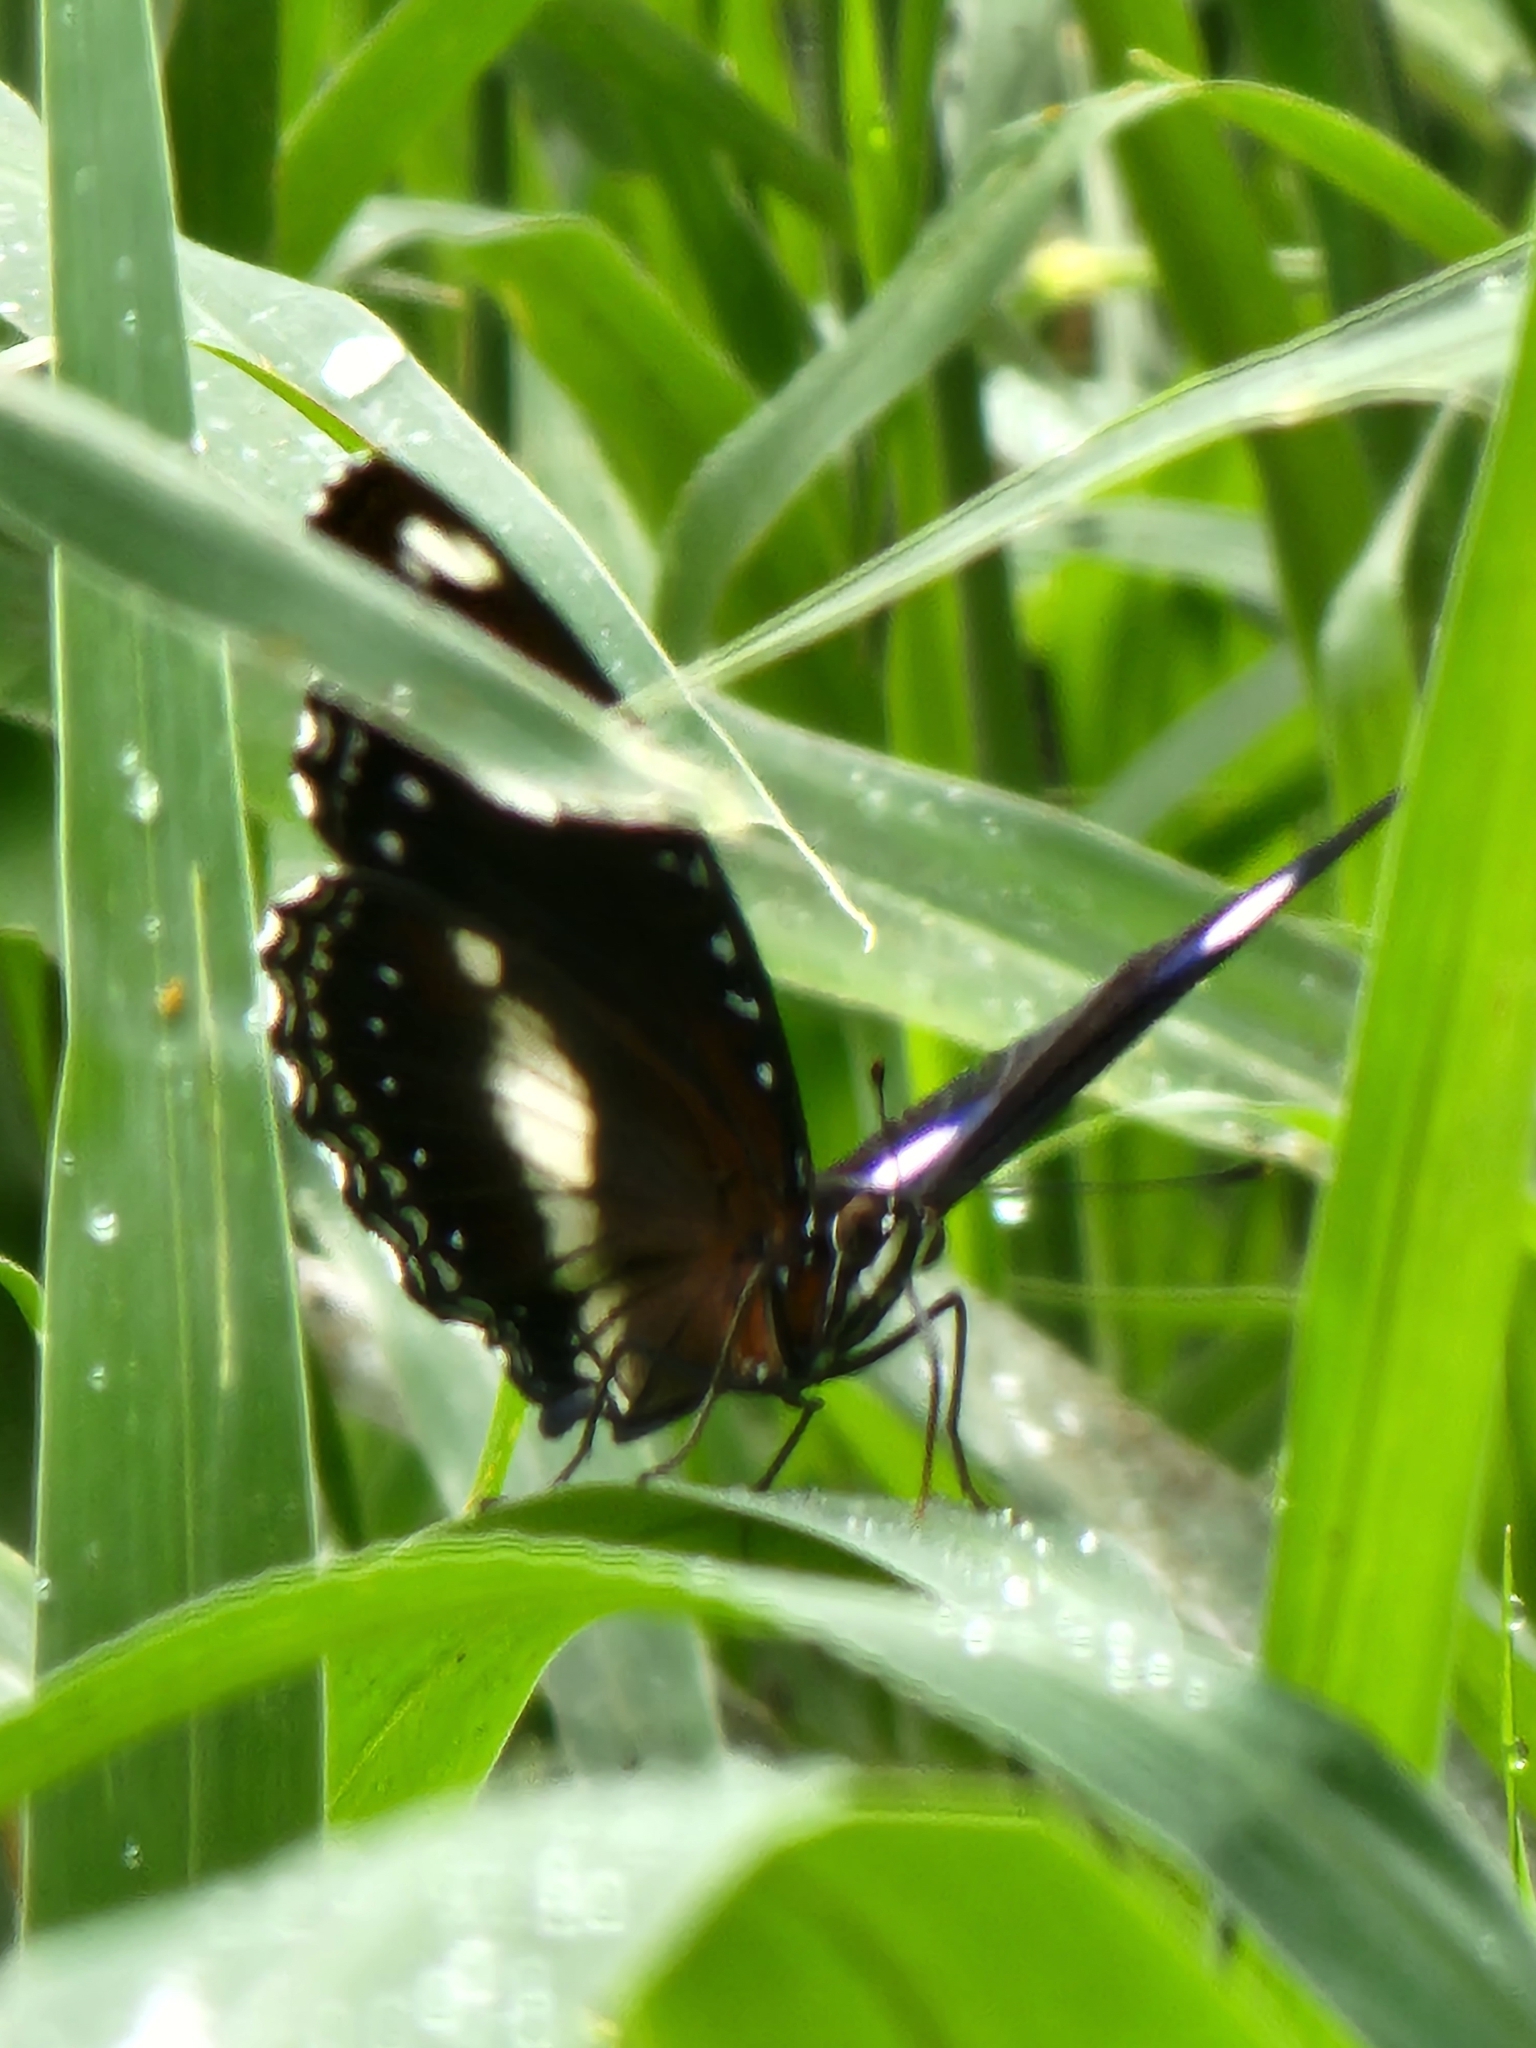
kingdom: Animalia
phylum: Arthropoda
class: Insecta
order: Lepidoptera
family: Nymphalidae
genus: Hypolimnas
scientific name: Hypolimnas bolina
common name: Great eggfly
